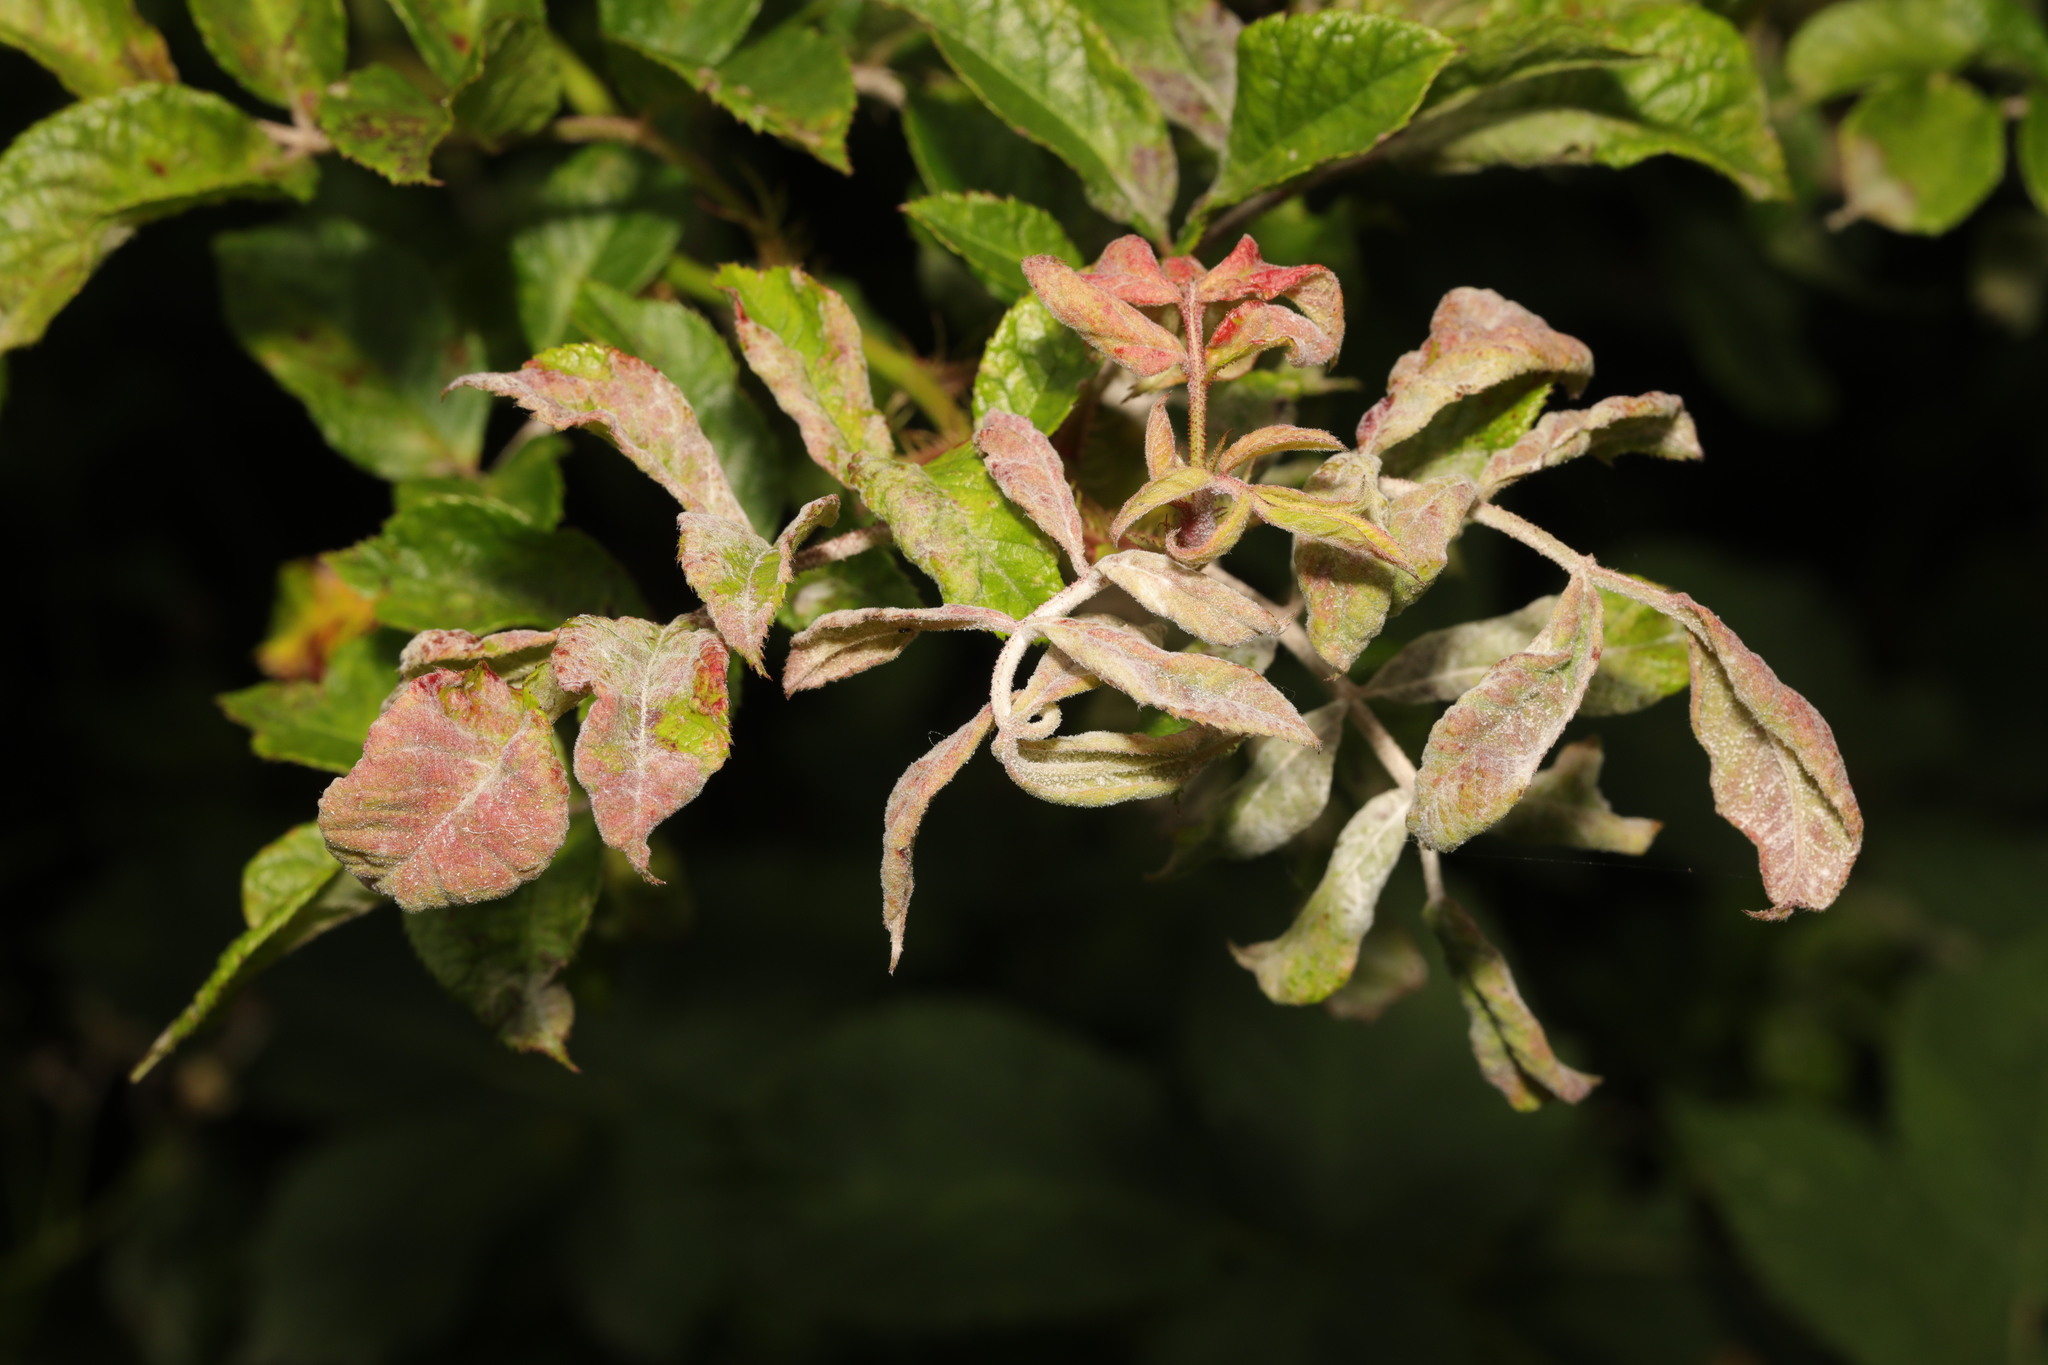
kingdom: Fungi
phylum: Ascomycota
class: Leotiomycetes
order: Helotiales
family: Erysiphaceae
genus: Podosphaera
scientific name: Podosphaera pannosa
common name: Rose mildew
